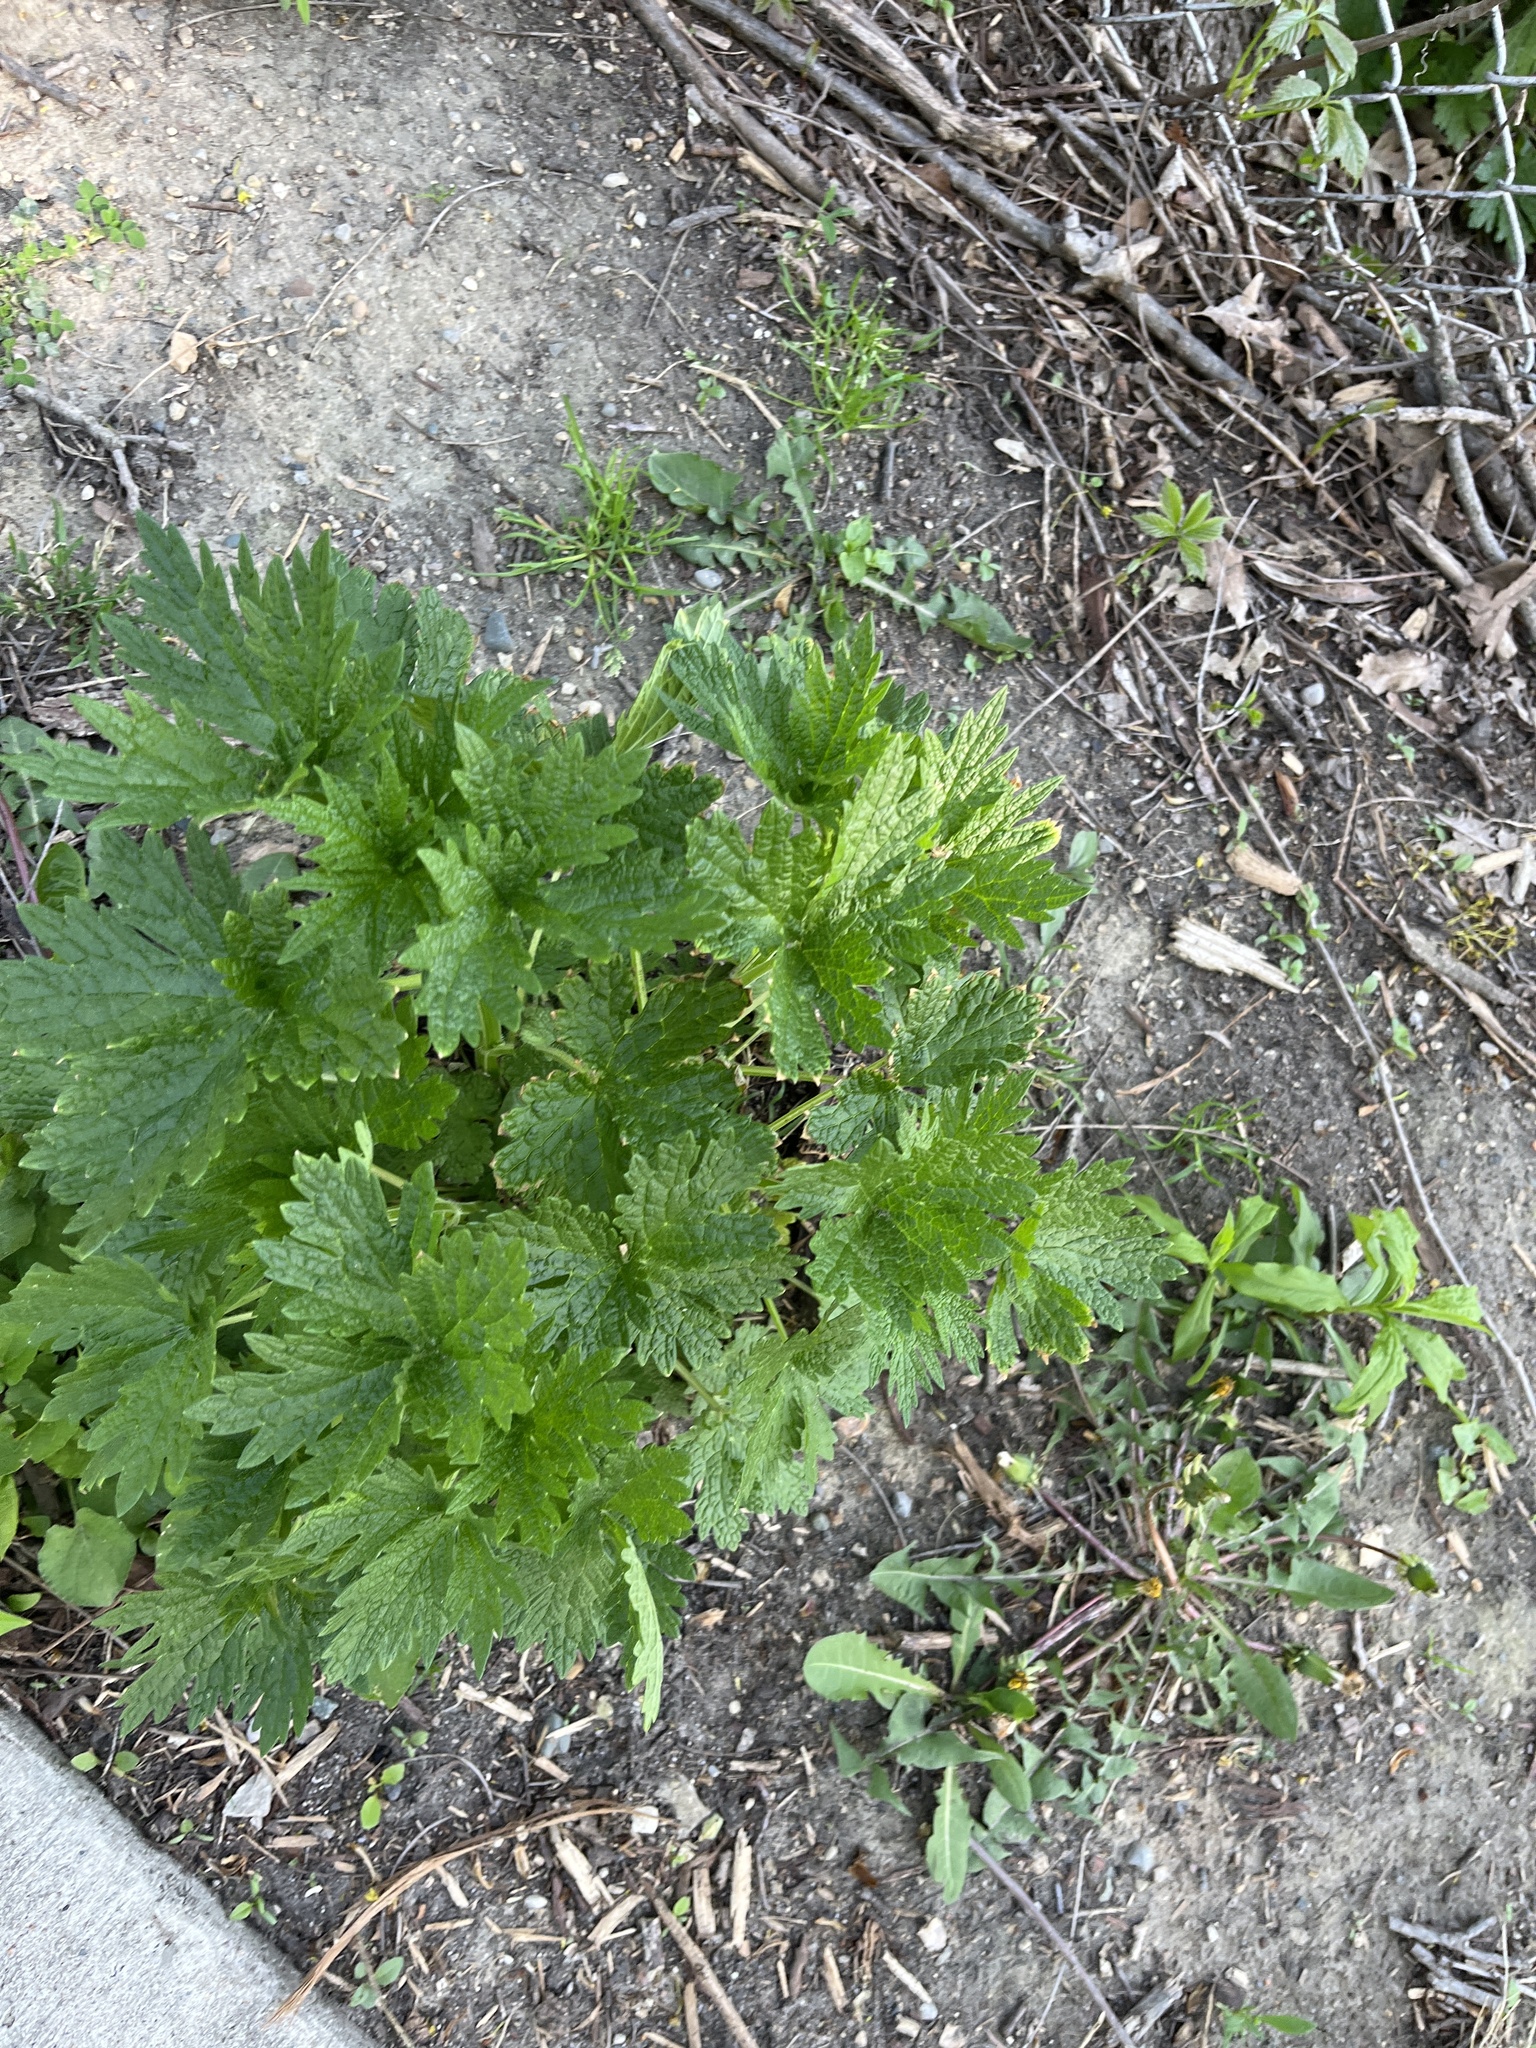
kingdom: Plantae
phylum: Tracheophyta
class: Magnoliopsida
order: Lamiales
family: Lamiaceae
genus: Leonurus
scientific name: Leonurus cardiaca
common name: Motherwort
